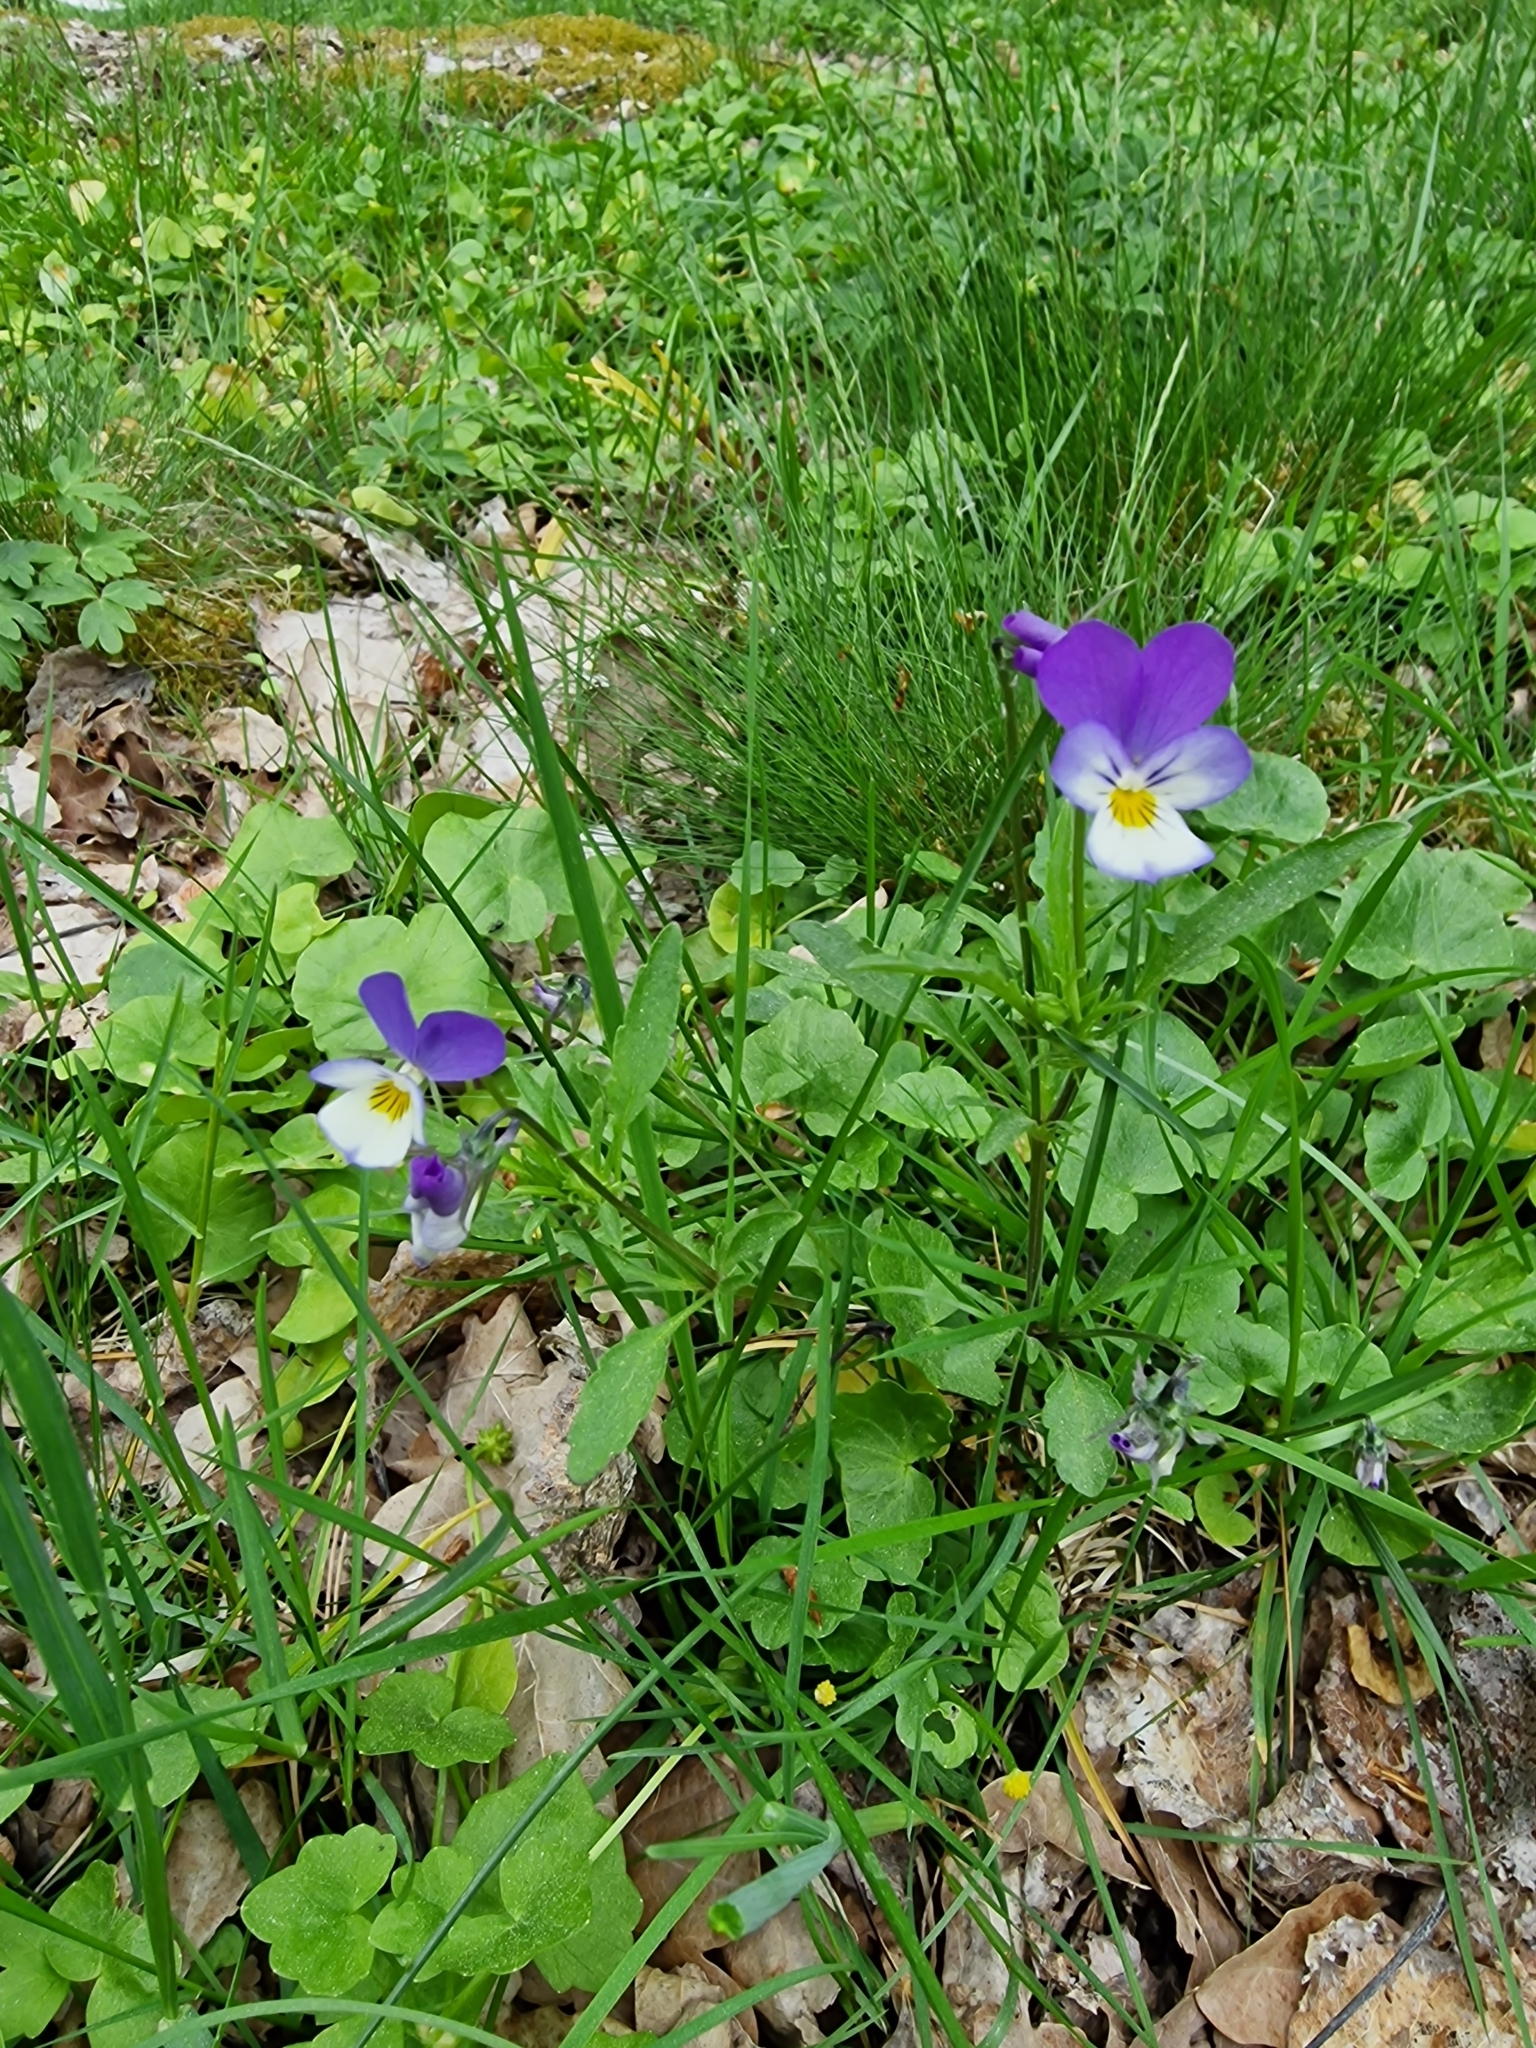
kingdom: Plantae
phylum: Tracheophyta
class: Magnoliopsida
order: Malpighiales
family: Violaceae
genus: Viola
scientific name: Viola tricolor
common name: Pansy
